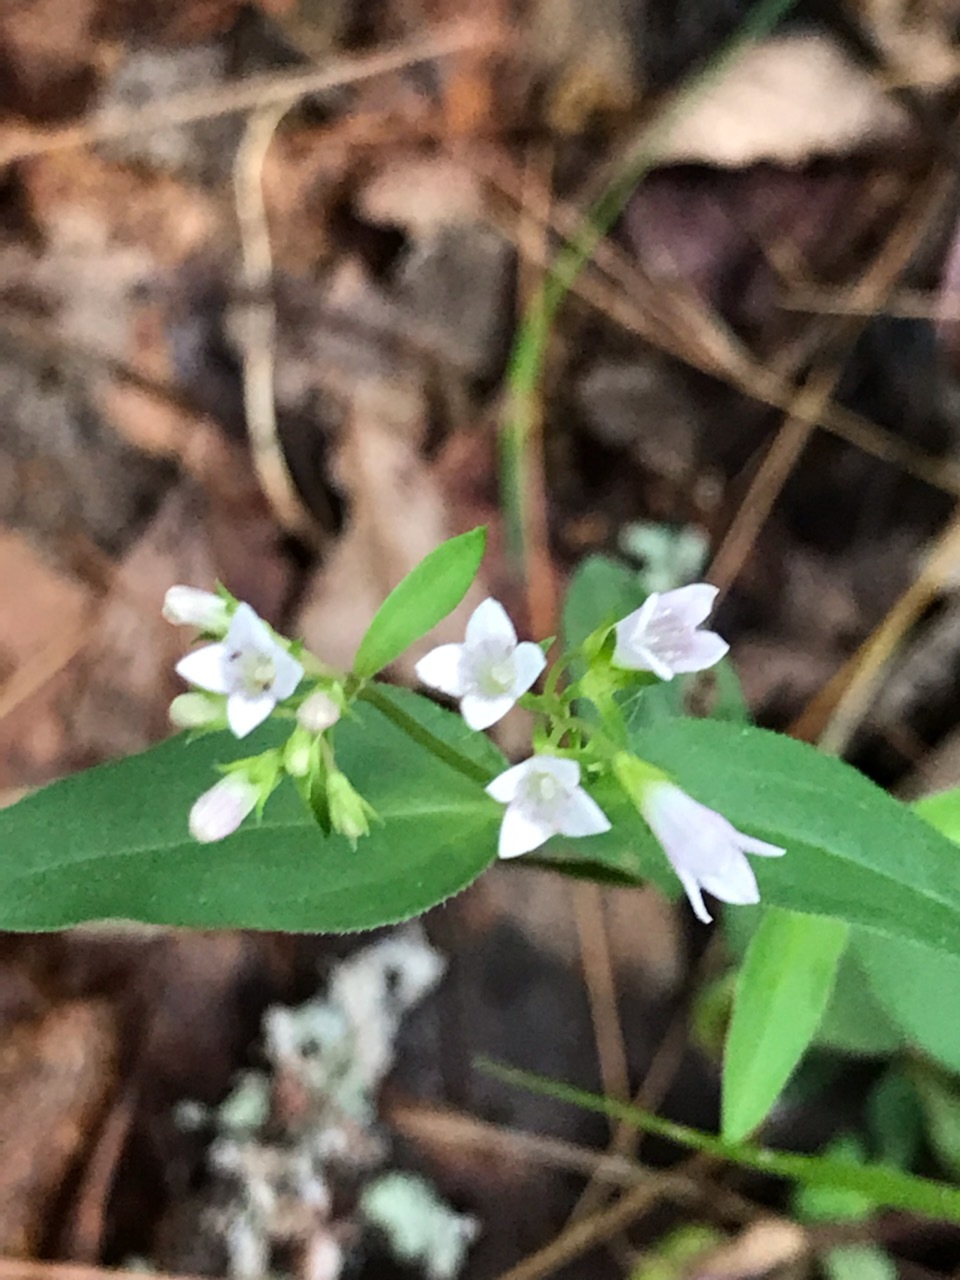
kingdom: Plantae
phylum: Tracheophyta
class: Magnoliopsida
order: Gentianales
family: Rubiaceae
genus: Houstonia
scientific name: Houstonia purpurea
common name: Summer bluet
